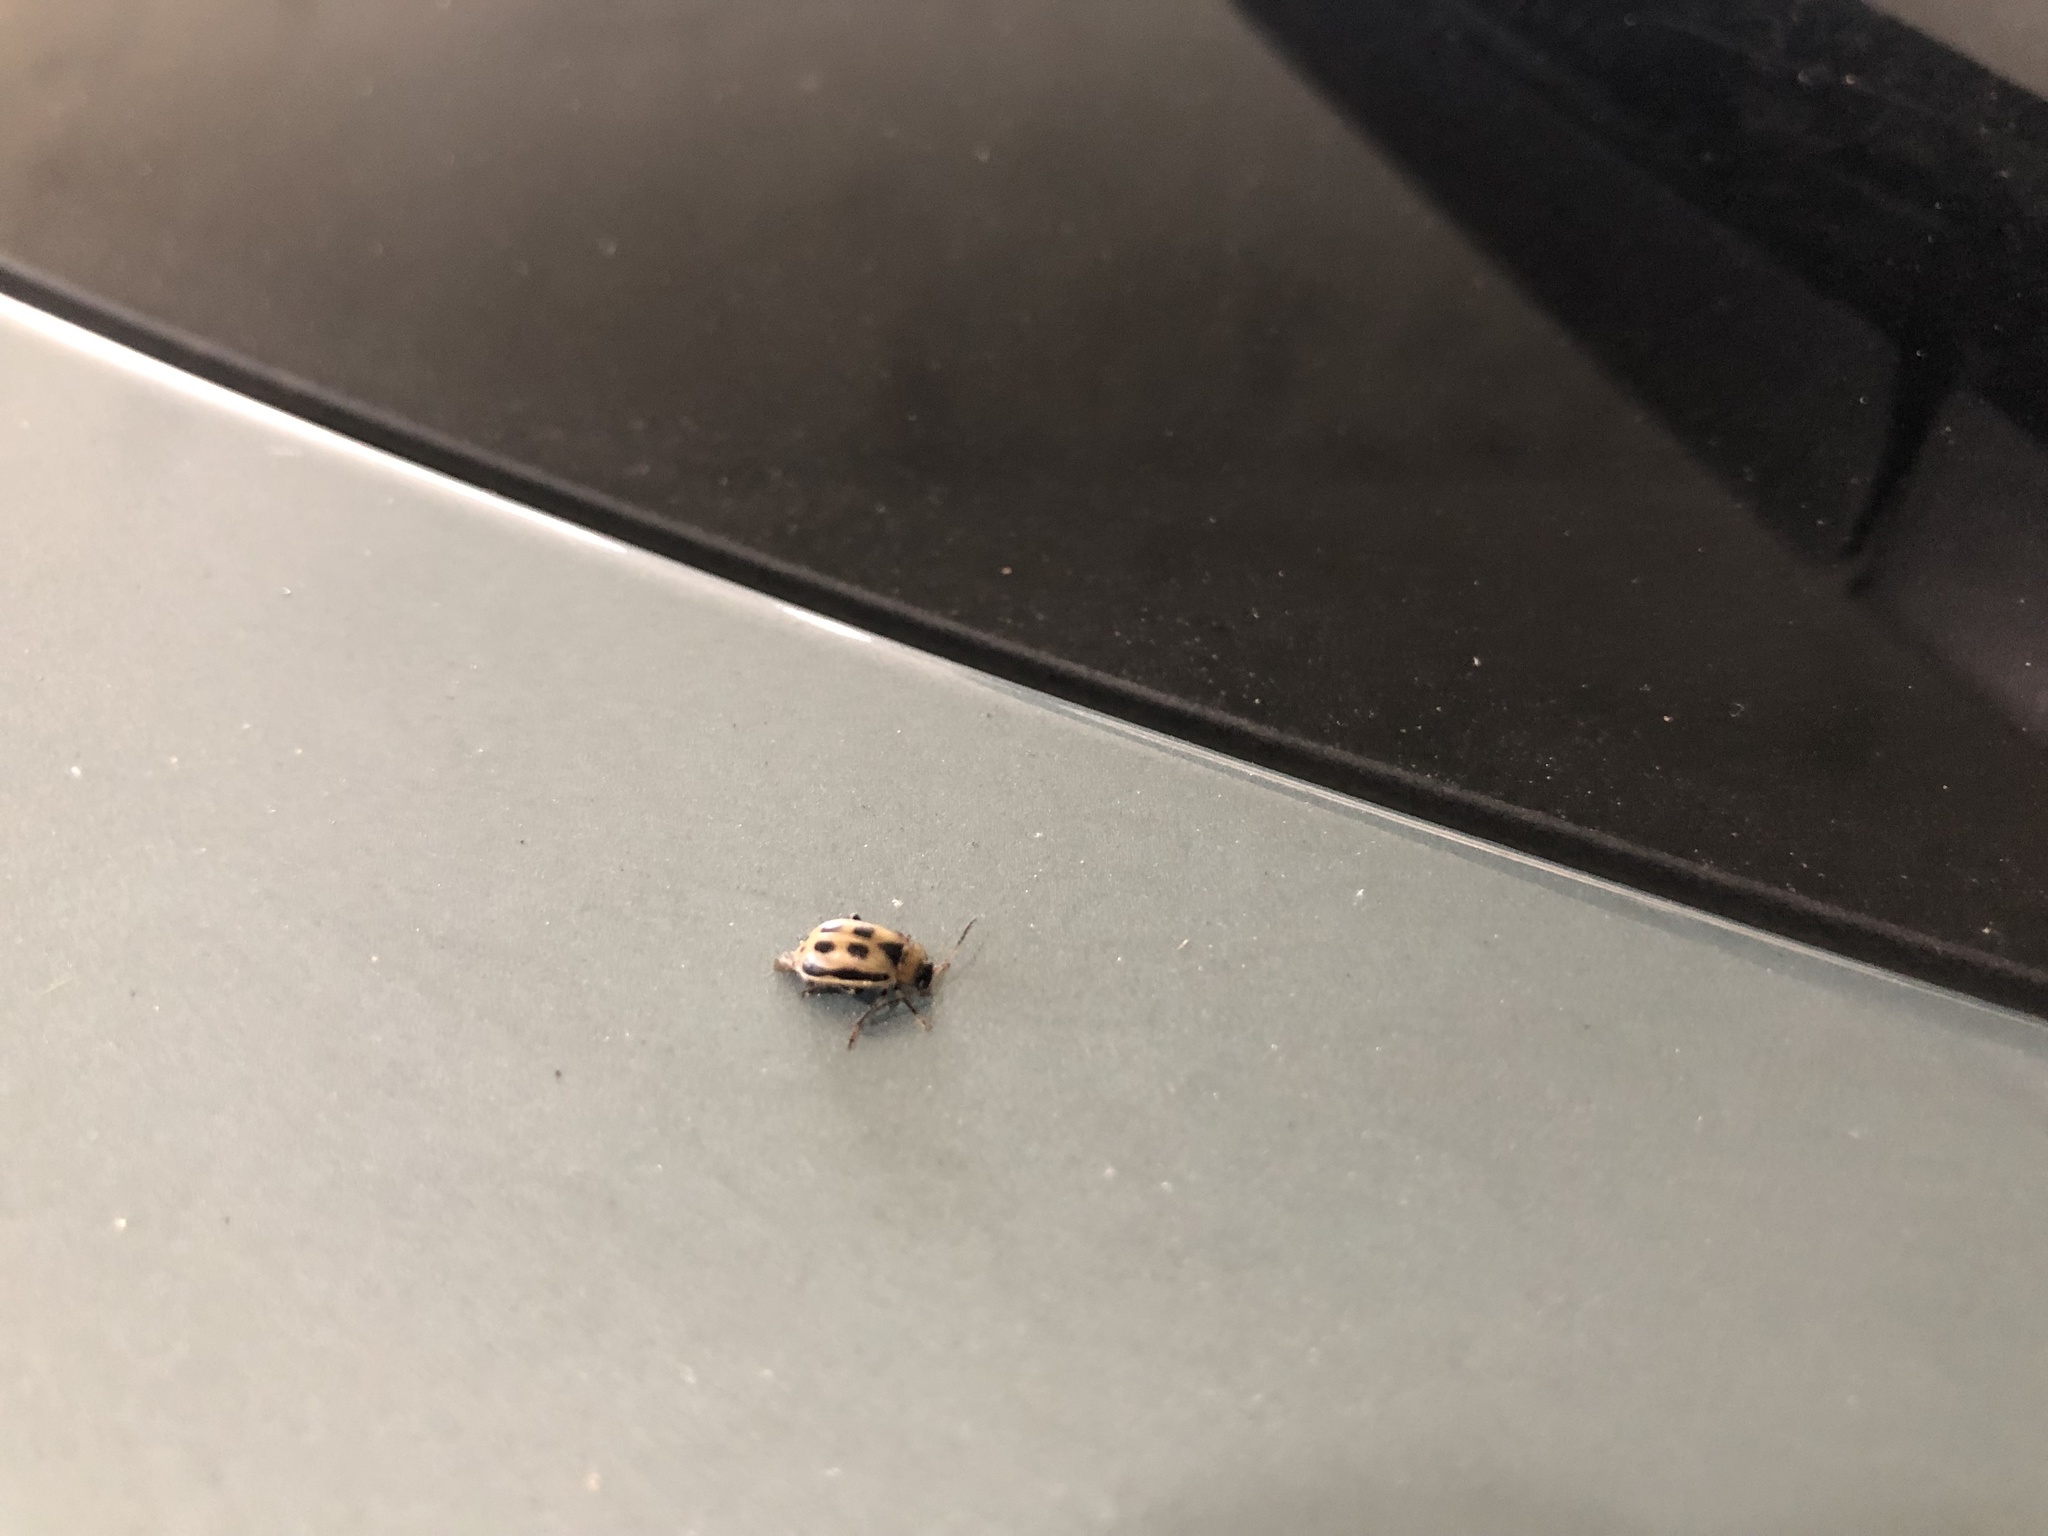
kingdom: Animalia
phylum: Arthropoda
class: Insecta
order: Coleoptera
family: Chrysomelidae
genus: Cerotoma
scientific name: Cerotoma trifurcata
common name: Bean leaf beetle
